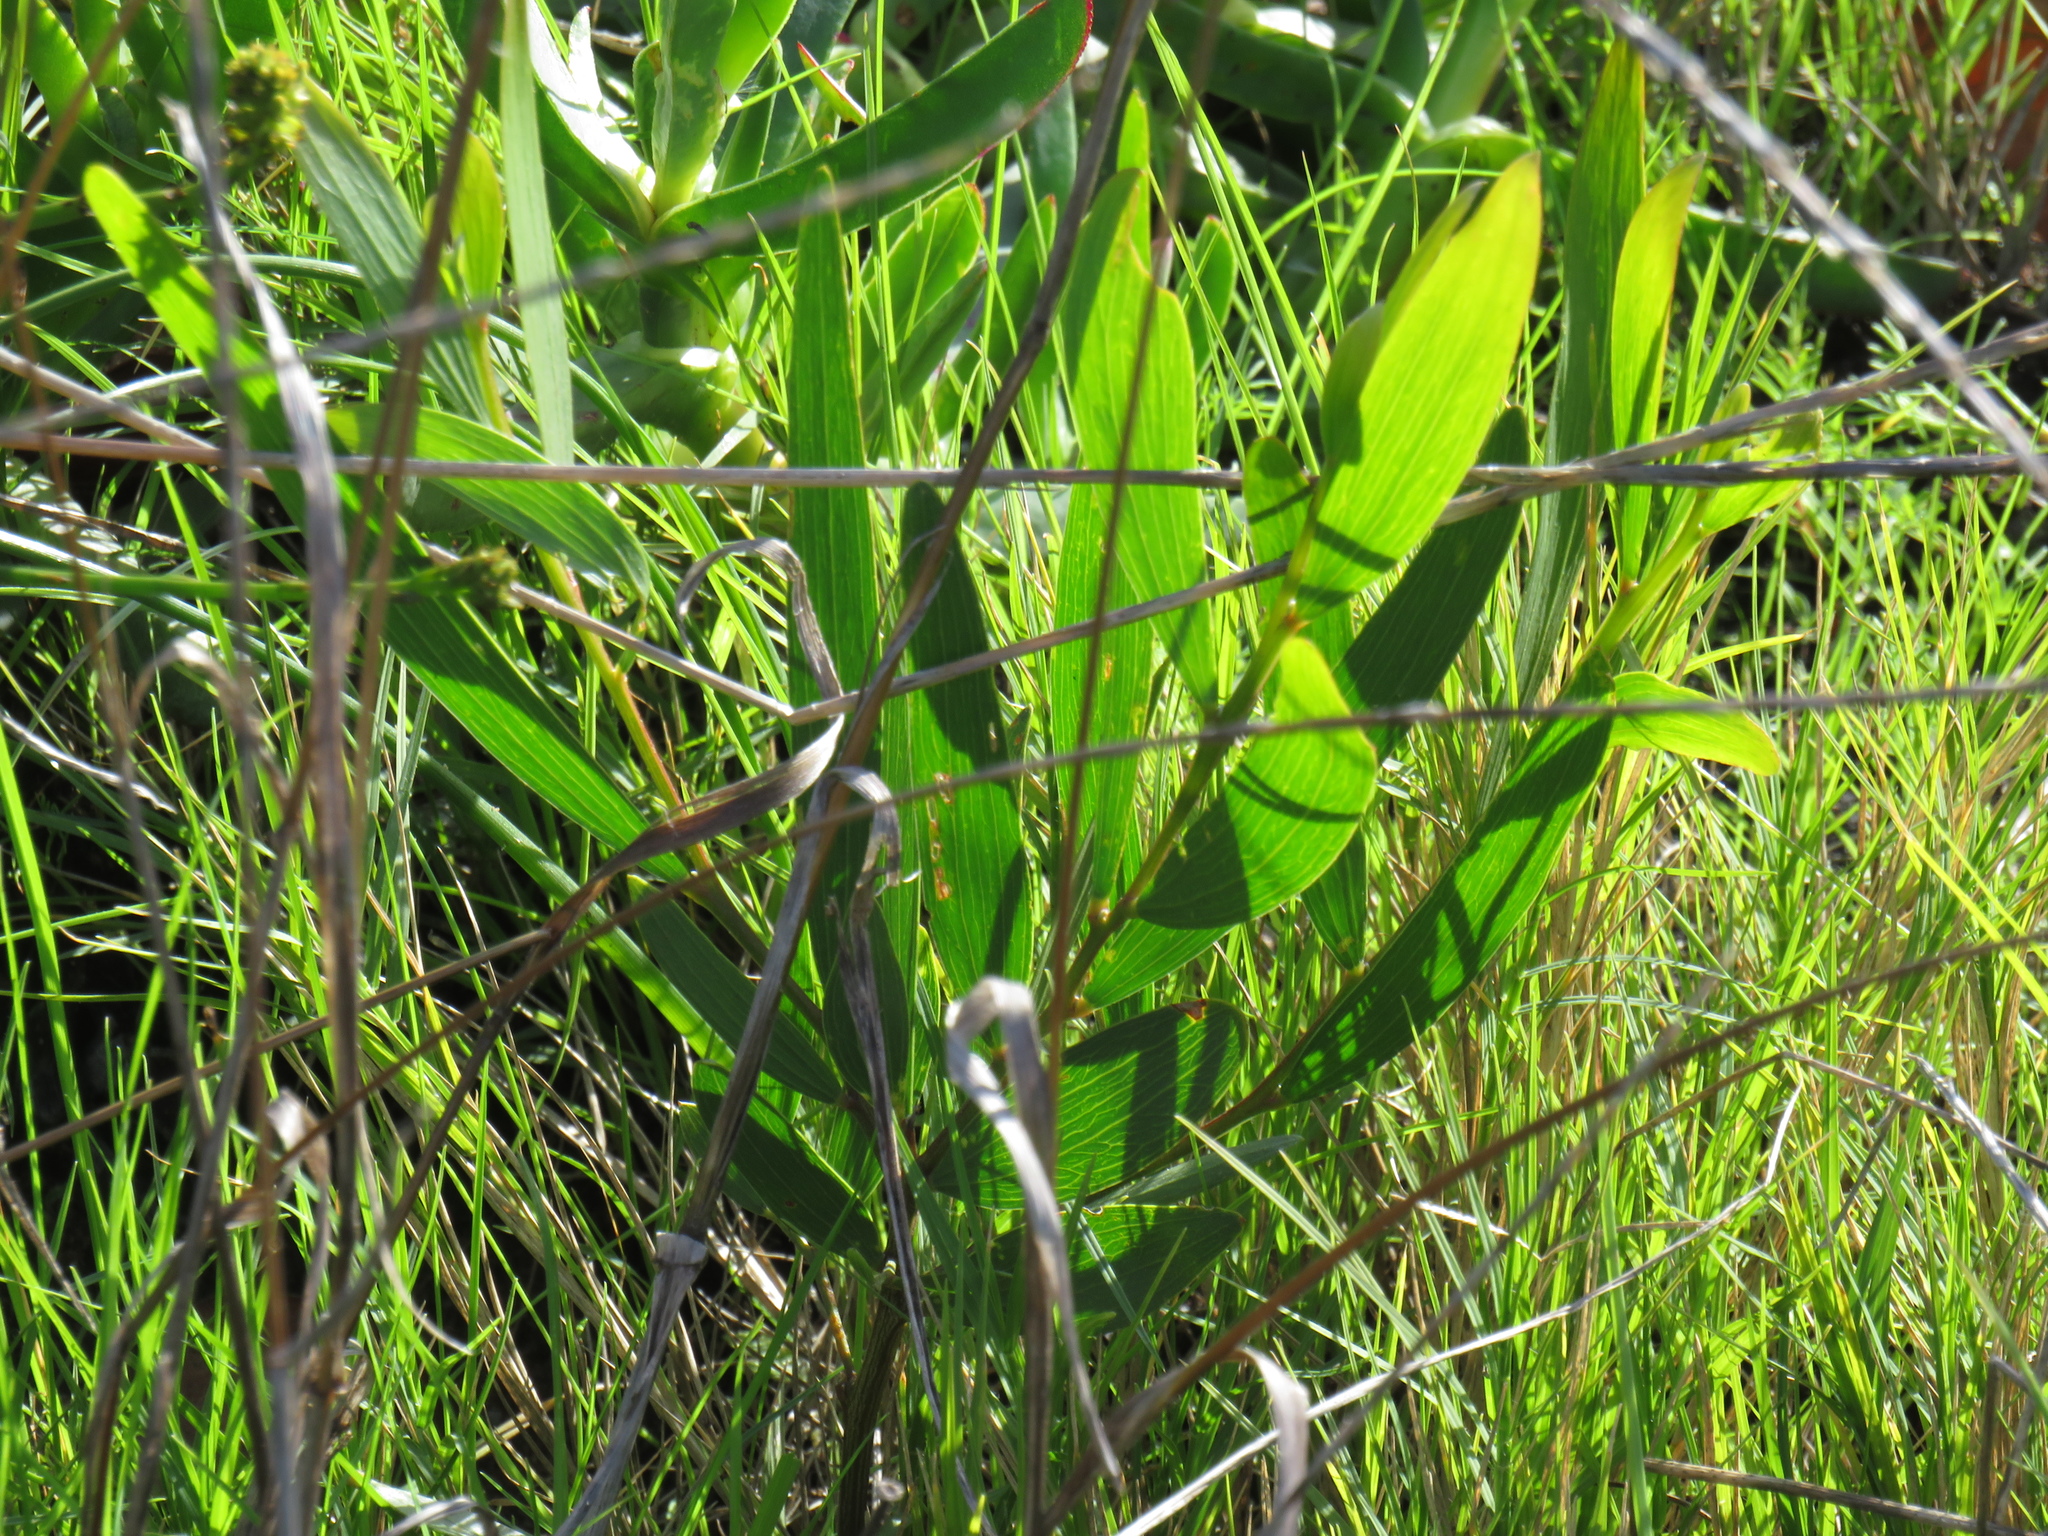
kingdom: Plantae
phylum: Tracheophyta
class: Magnoliopsida
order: Fabales
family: Fabaceae
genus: Acacia
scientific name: Acacia longifolia
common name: Sydney golden wattle
